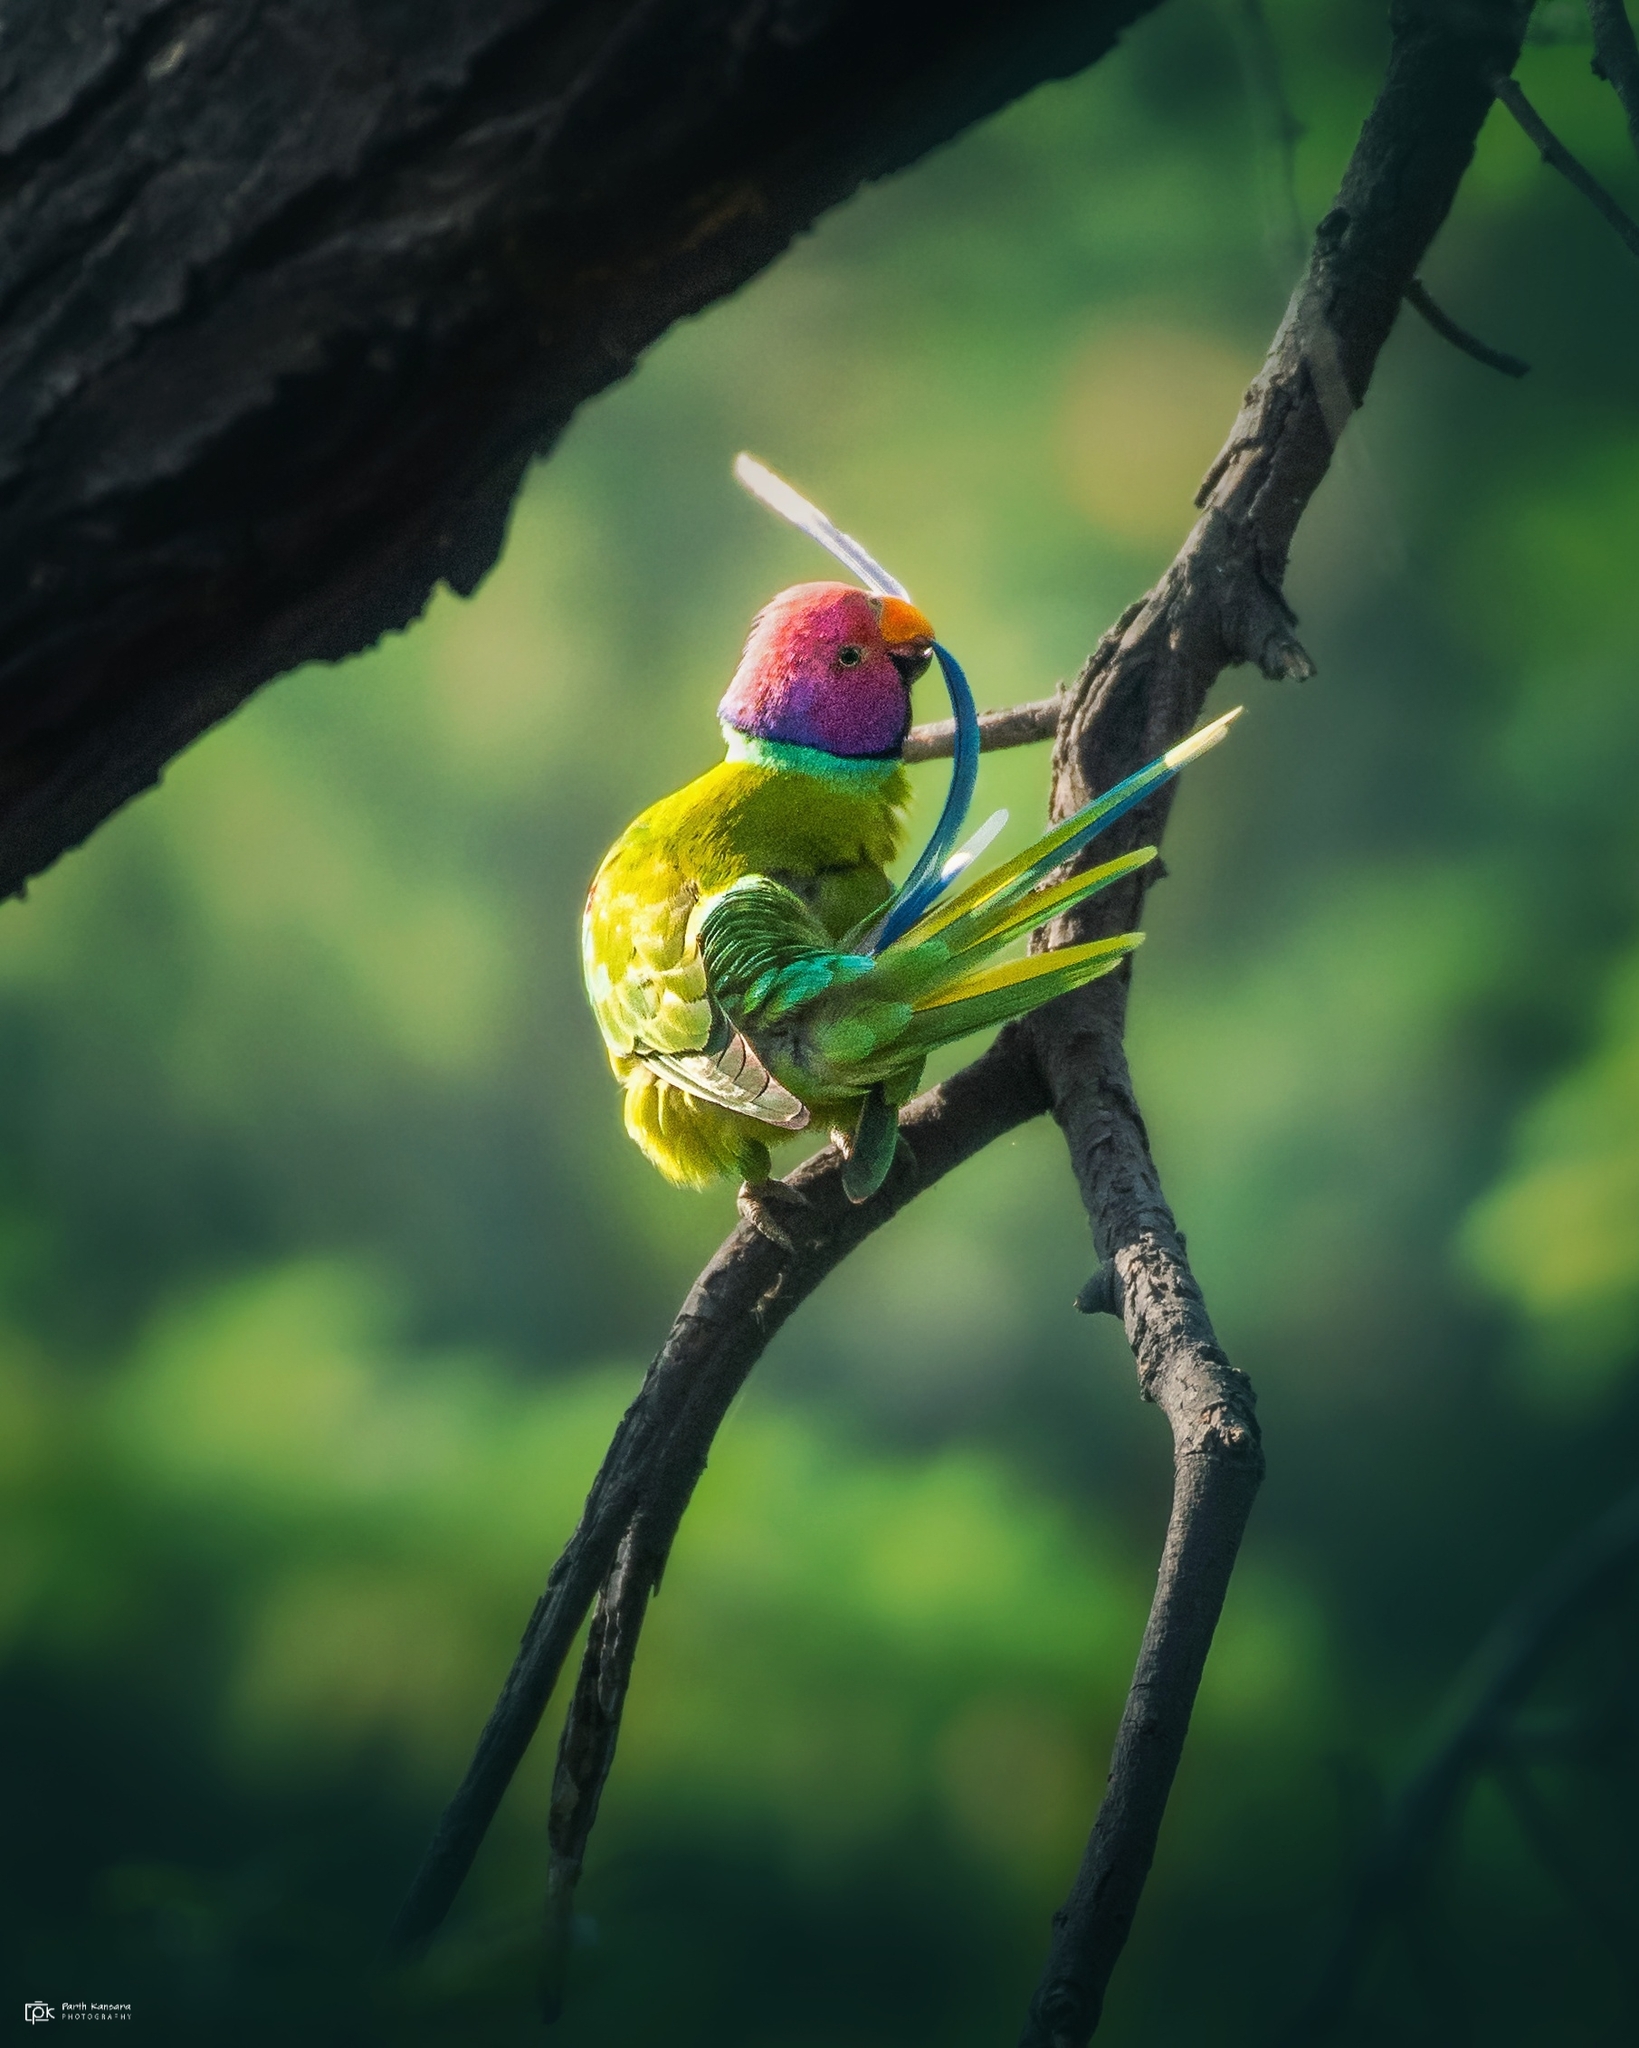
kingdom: Animalia
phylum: Chordata
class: Aves
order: Psittaciformes
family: Psittacidae
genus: Psittacula
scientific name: Psittacula cyanocephala
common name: Plum-headed parakeet
